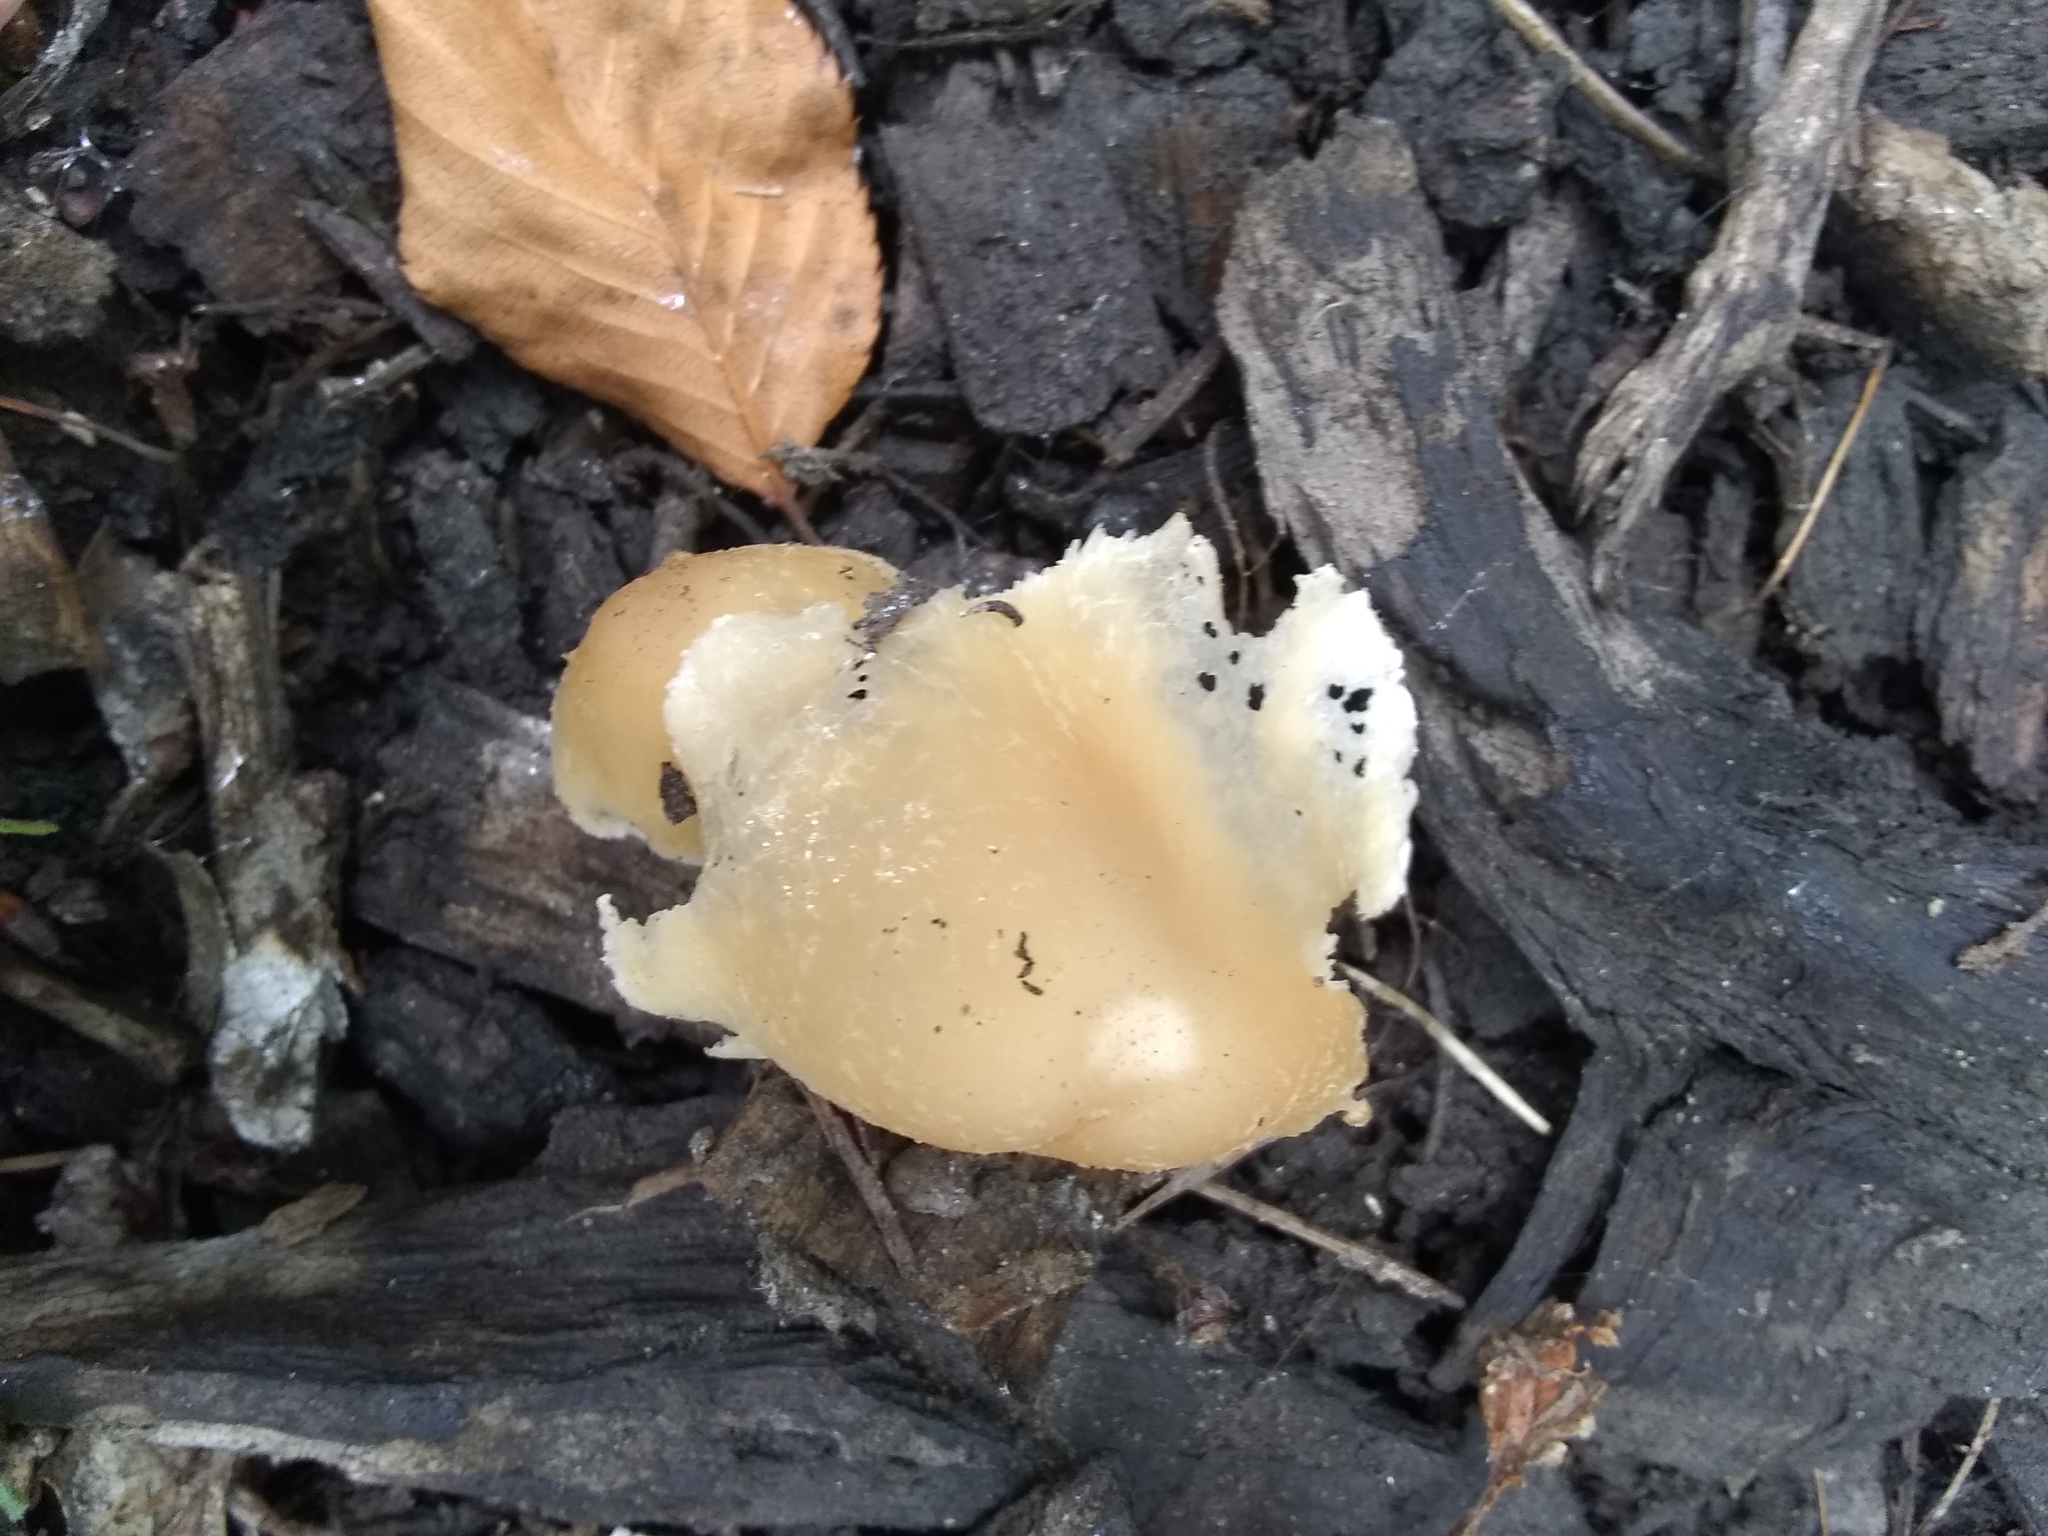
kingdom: Fungi
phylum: Basidiomycota
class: Agaricomycetes
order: Agaricales
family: Psathyrellaceae
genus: Candolleomyces
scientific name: Candolleomyces candolleanus
